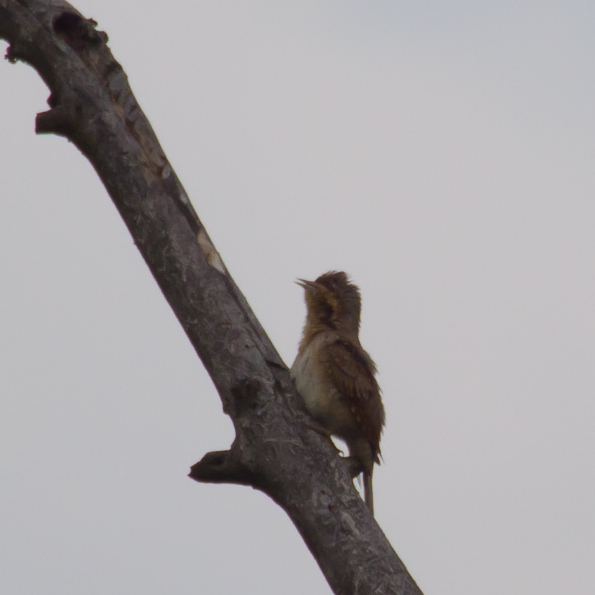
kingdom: Animalia
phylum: Chordata
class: Aves
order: Piciformes
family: Picidae
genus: Jynx
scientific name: Jynx torquilla
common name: Eurasian wryneck
